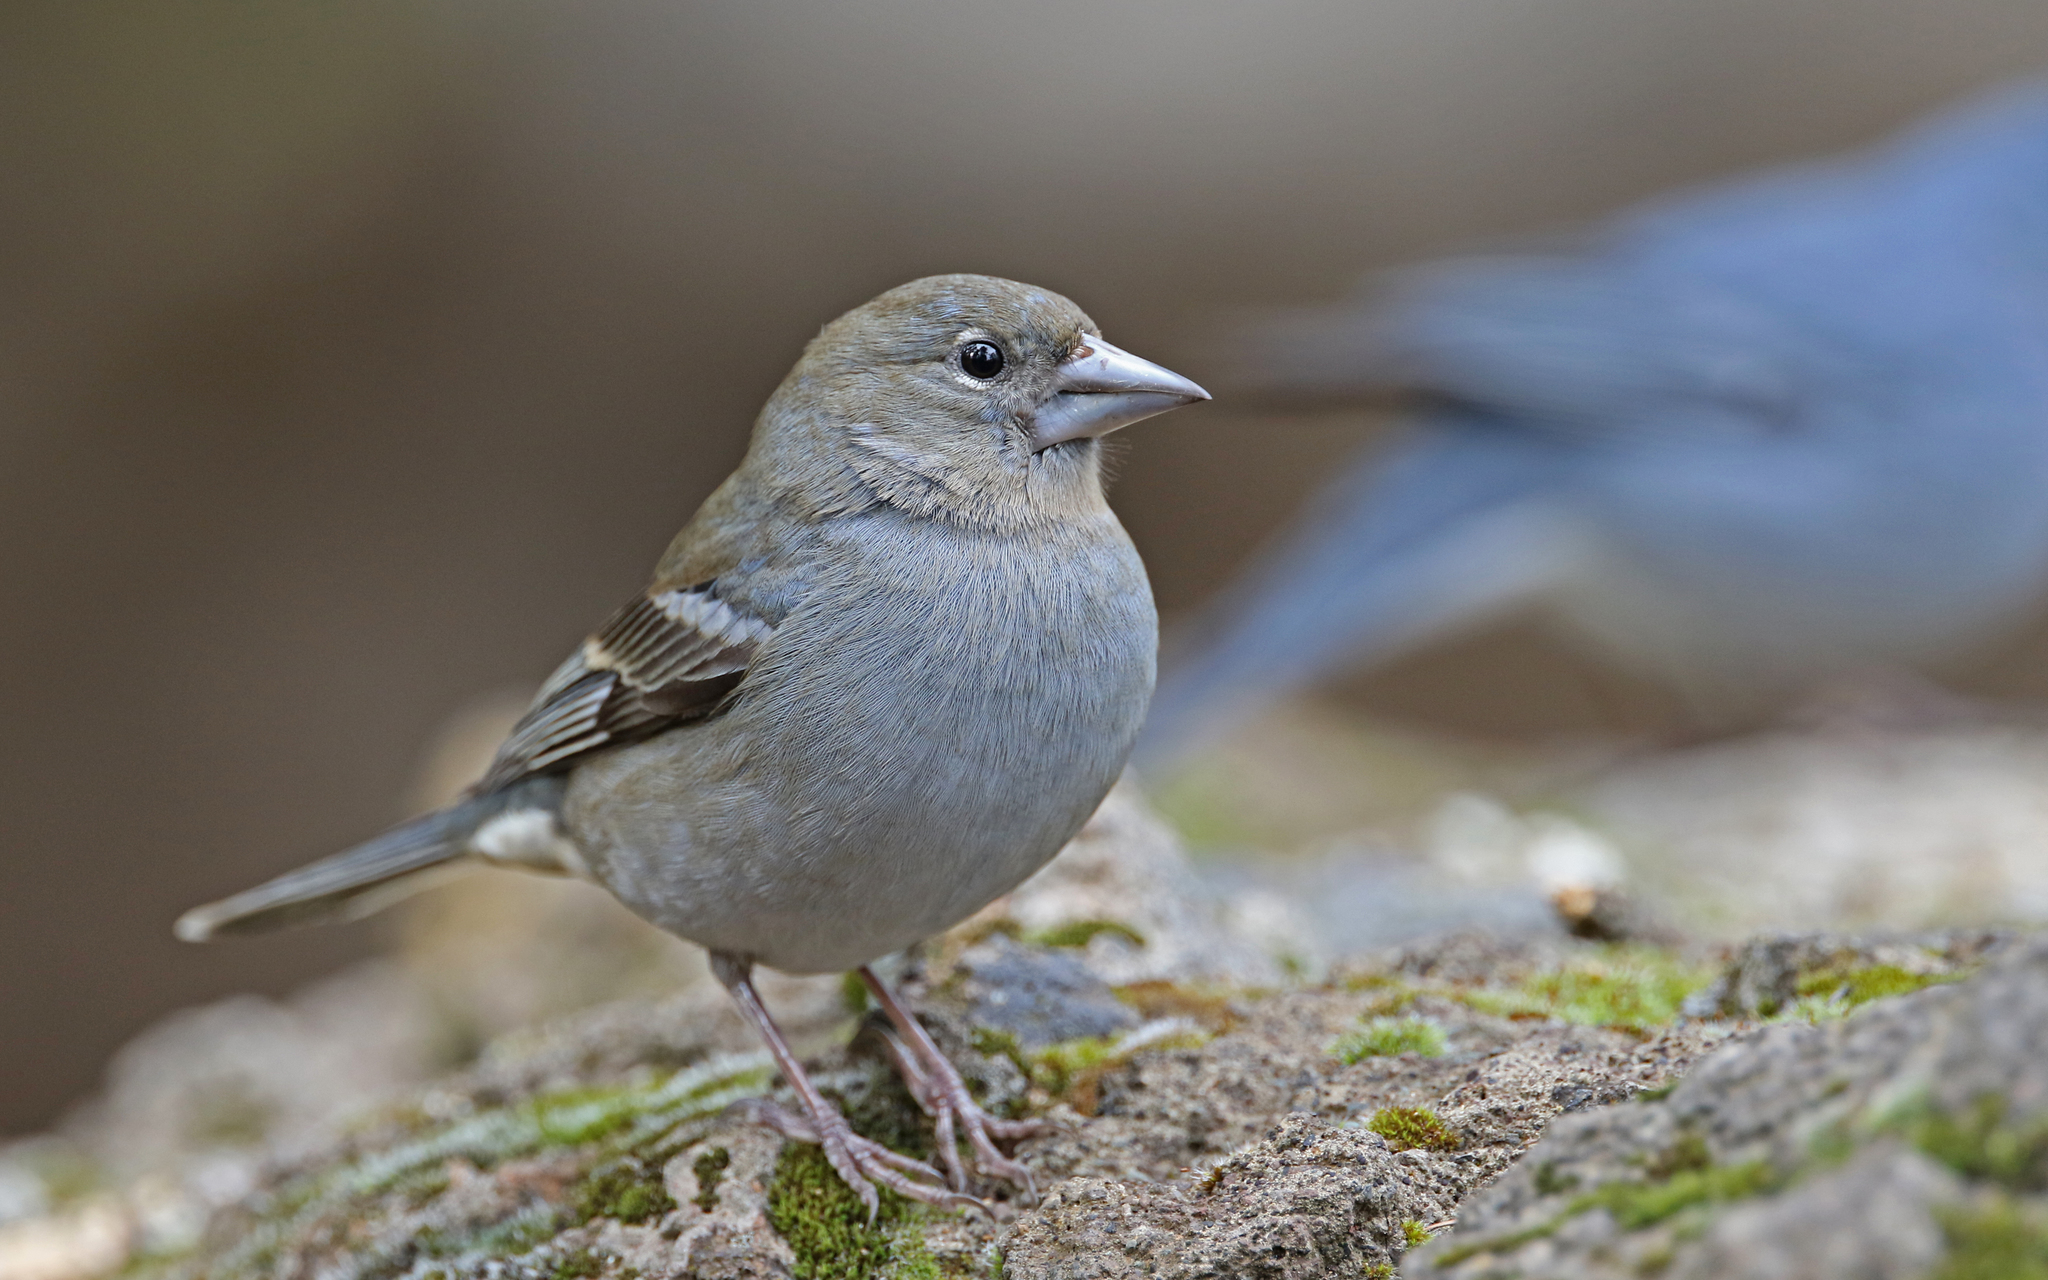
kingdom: Animalia
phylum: Chordata
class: Aves
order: Passeriformes
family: Fringillidae
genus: Fringilla
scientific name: Fringilla teydea
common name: Blue chaffinch
